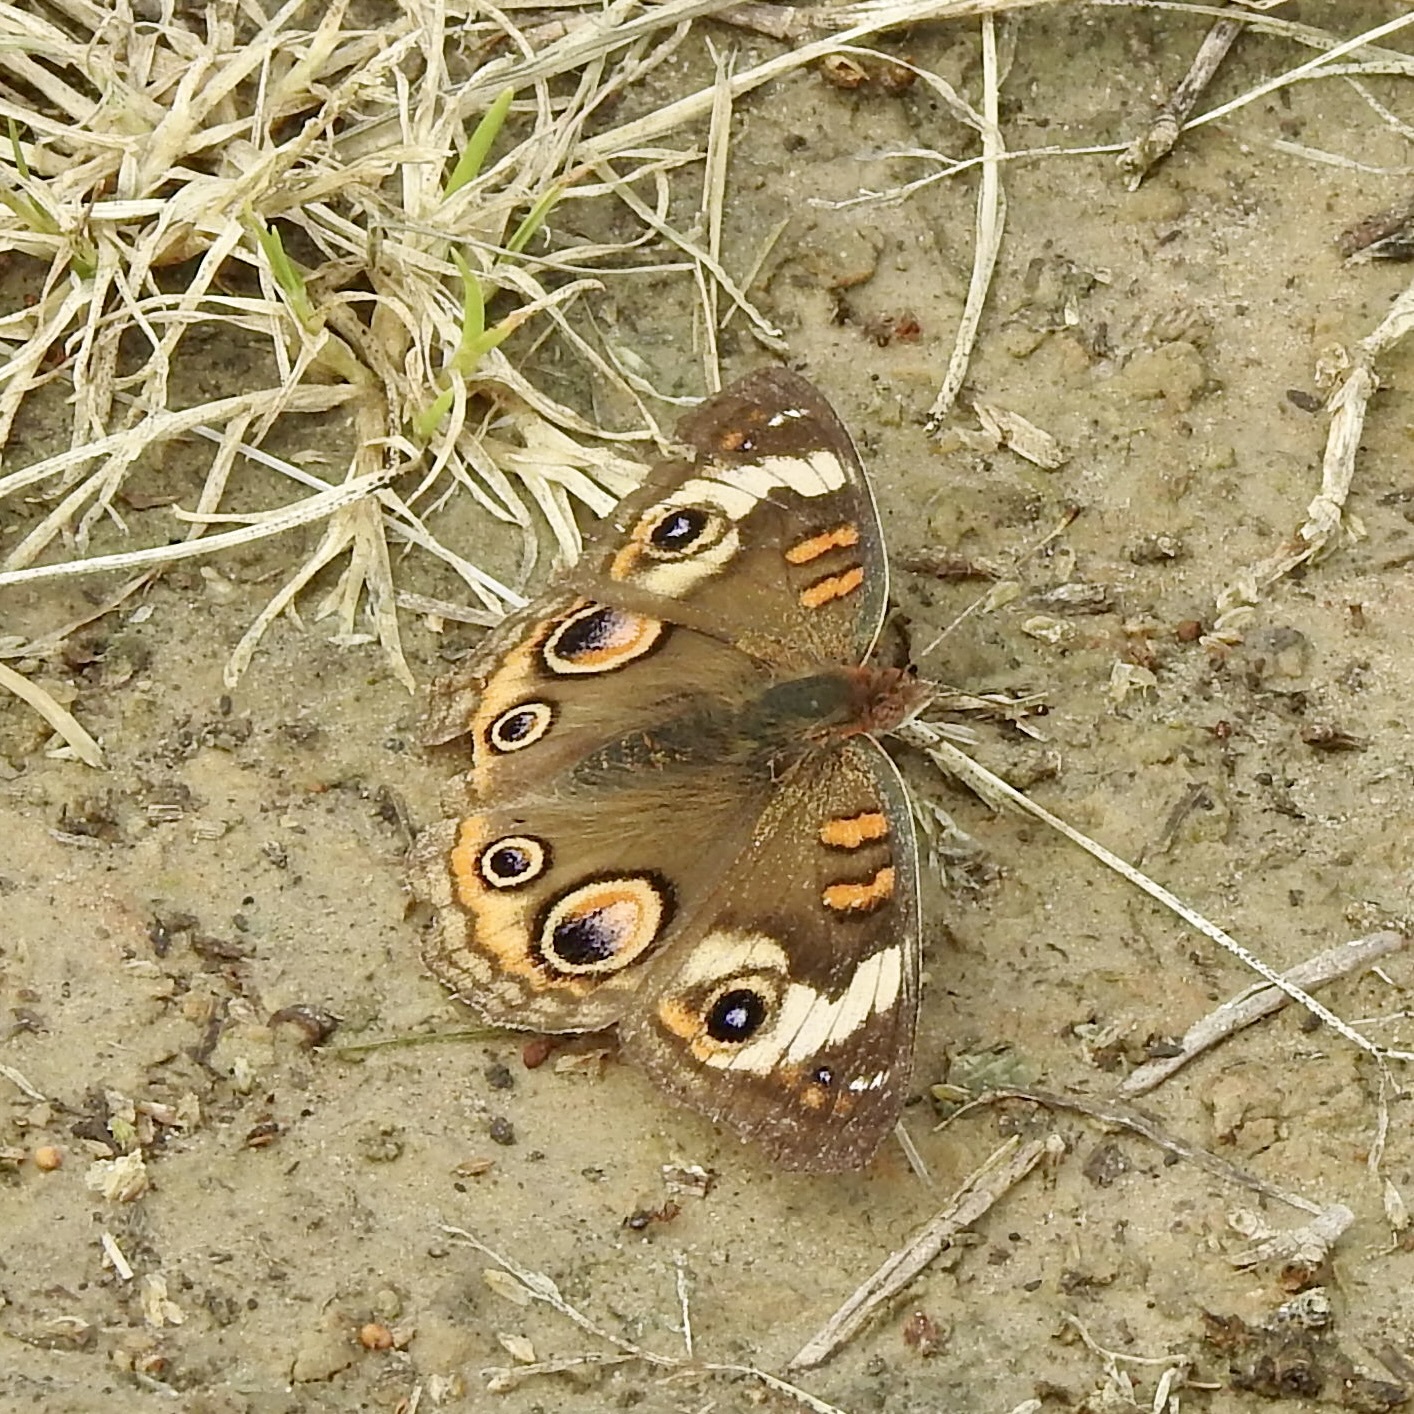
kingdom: Animalia
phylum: Arthropoda
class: Insecta
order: Lepidoptera
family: Nymphalidae
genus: Junonia
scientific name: Junonia coenia
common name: Common buckeye
